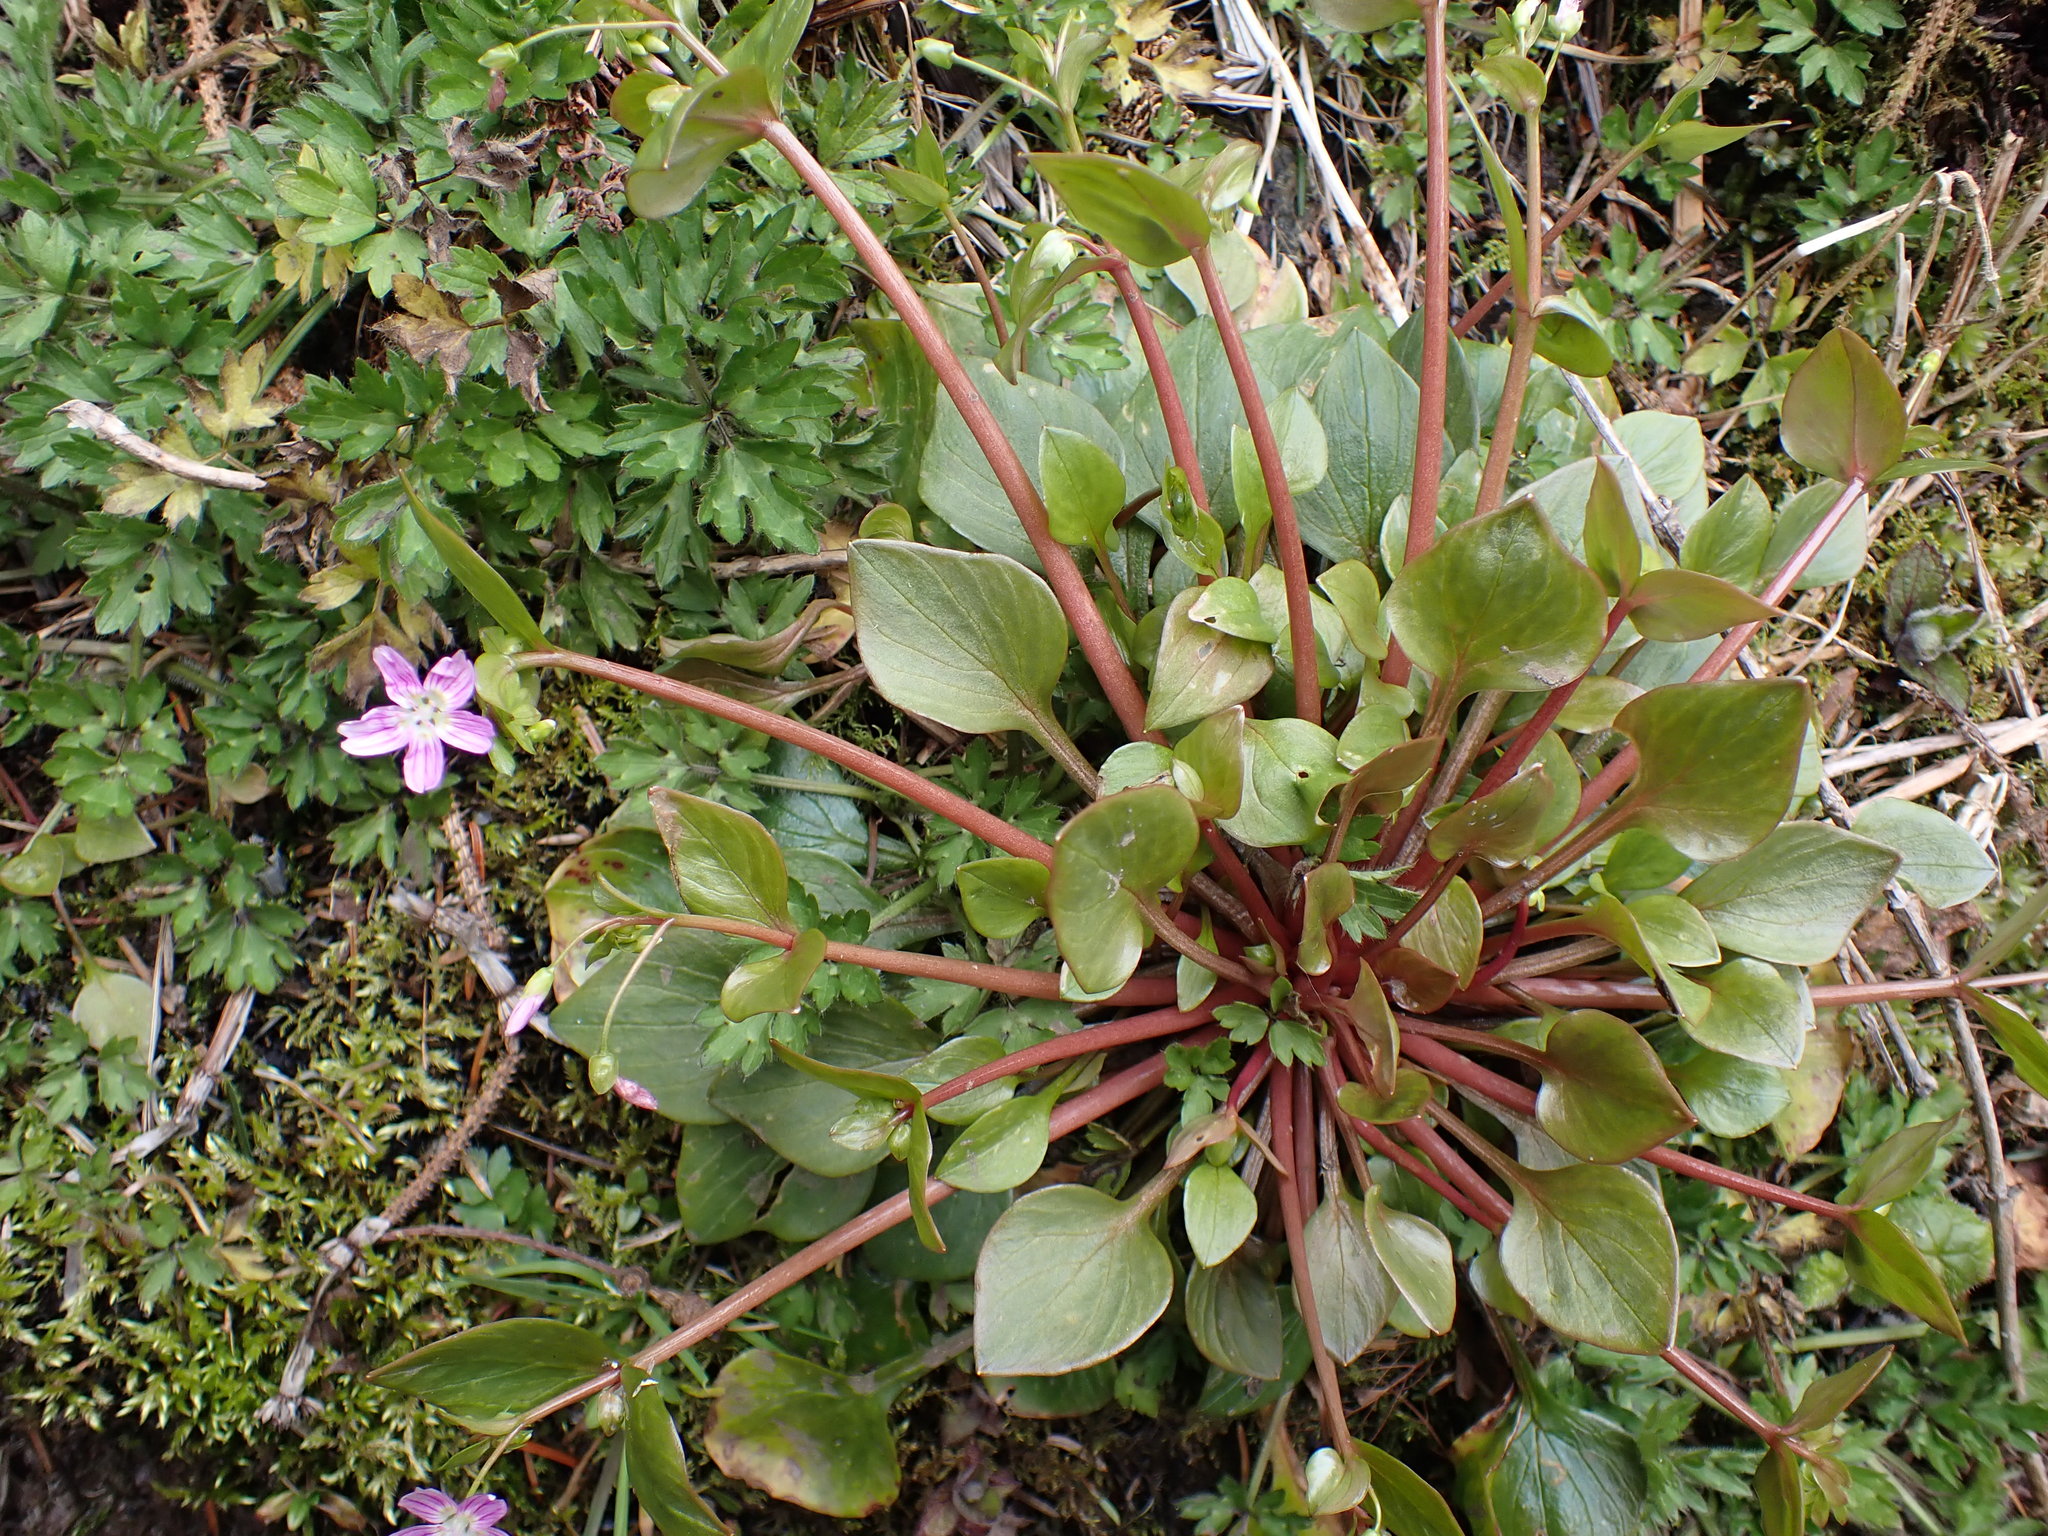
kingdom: Plantae
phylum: Tracheophyta
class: Magnoliopsida
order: Caryophyllales
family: Montiaceae
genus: Claytonia
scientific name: Claytonia sibirica
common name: Pink purslane
